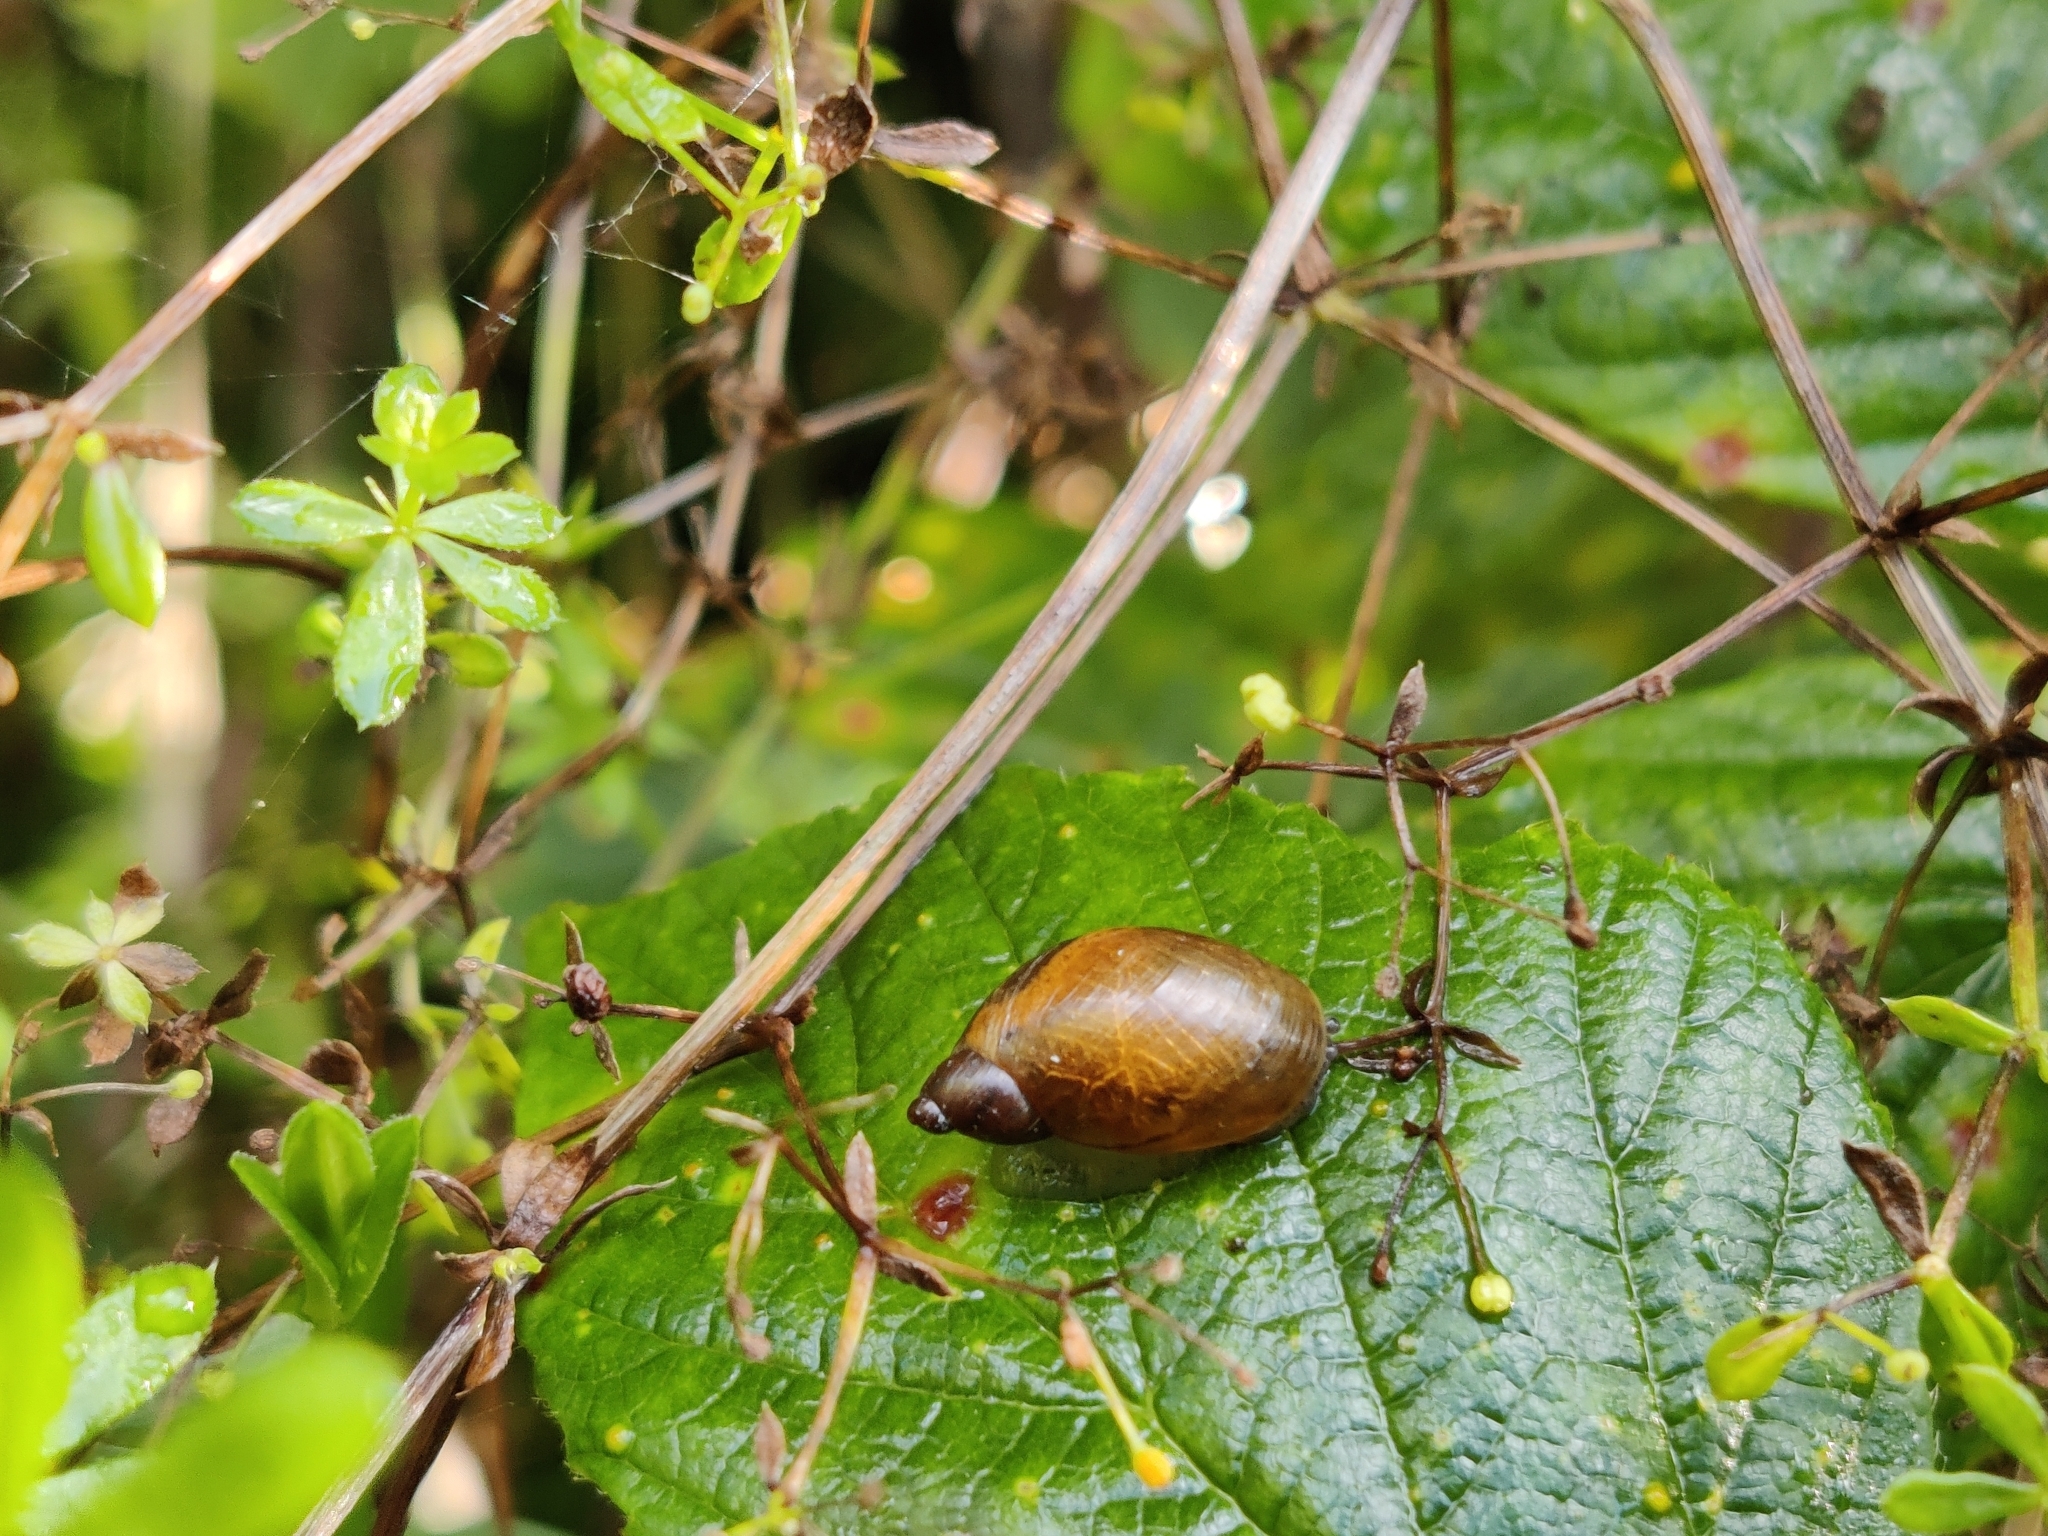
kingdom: Animalia
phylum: Mollusca
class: Gastropoda
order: Stylommatophora
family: Succineidae
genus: Succinea
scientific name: Succinea putris
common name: European ambersnail
